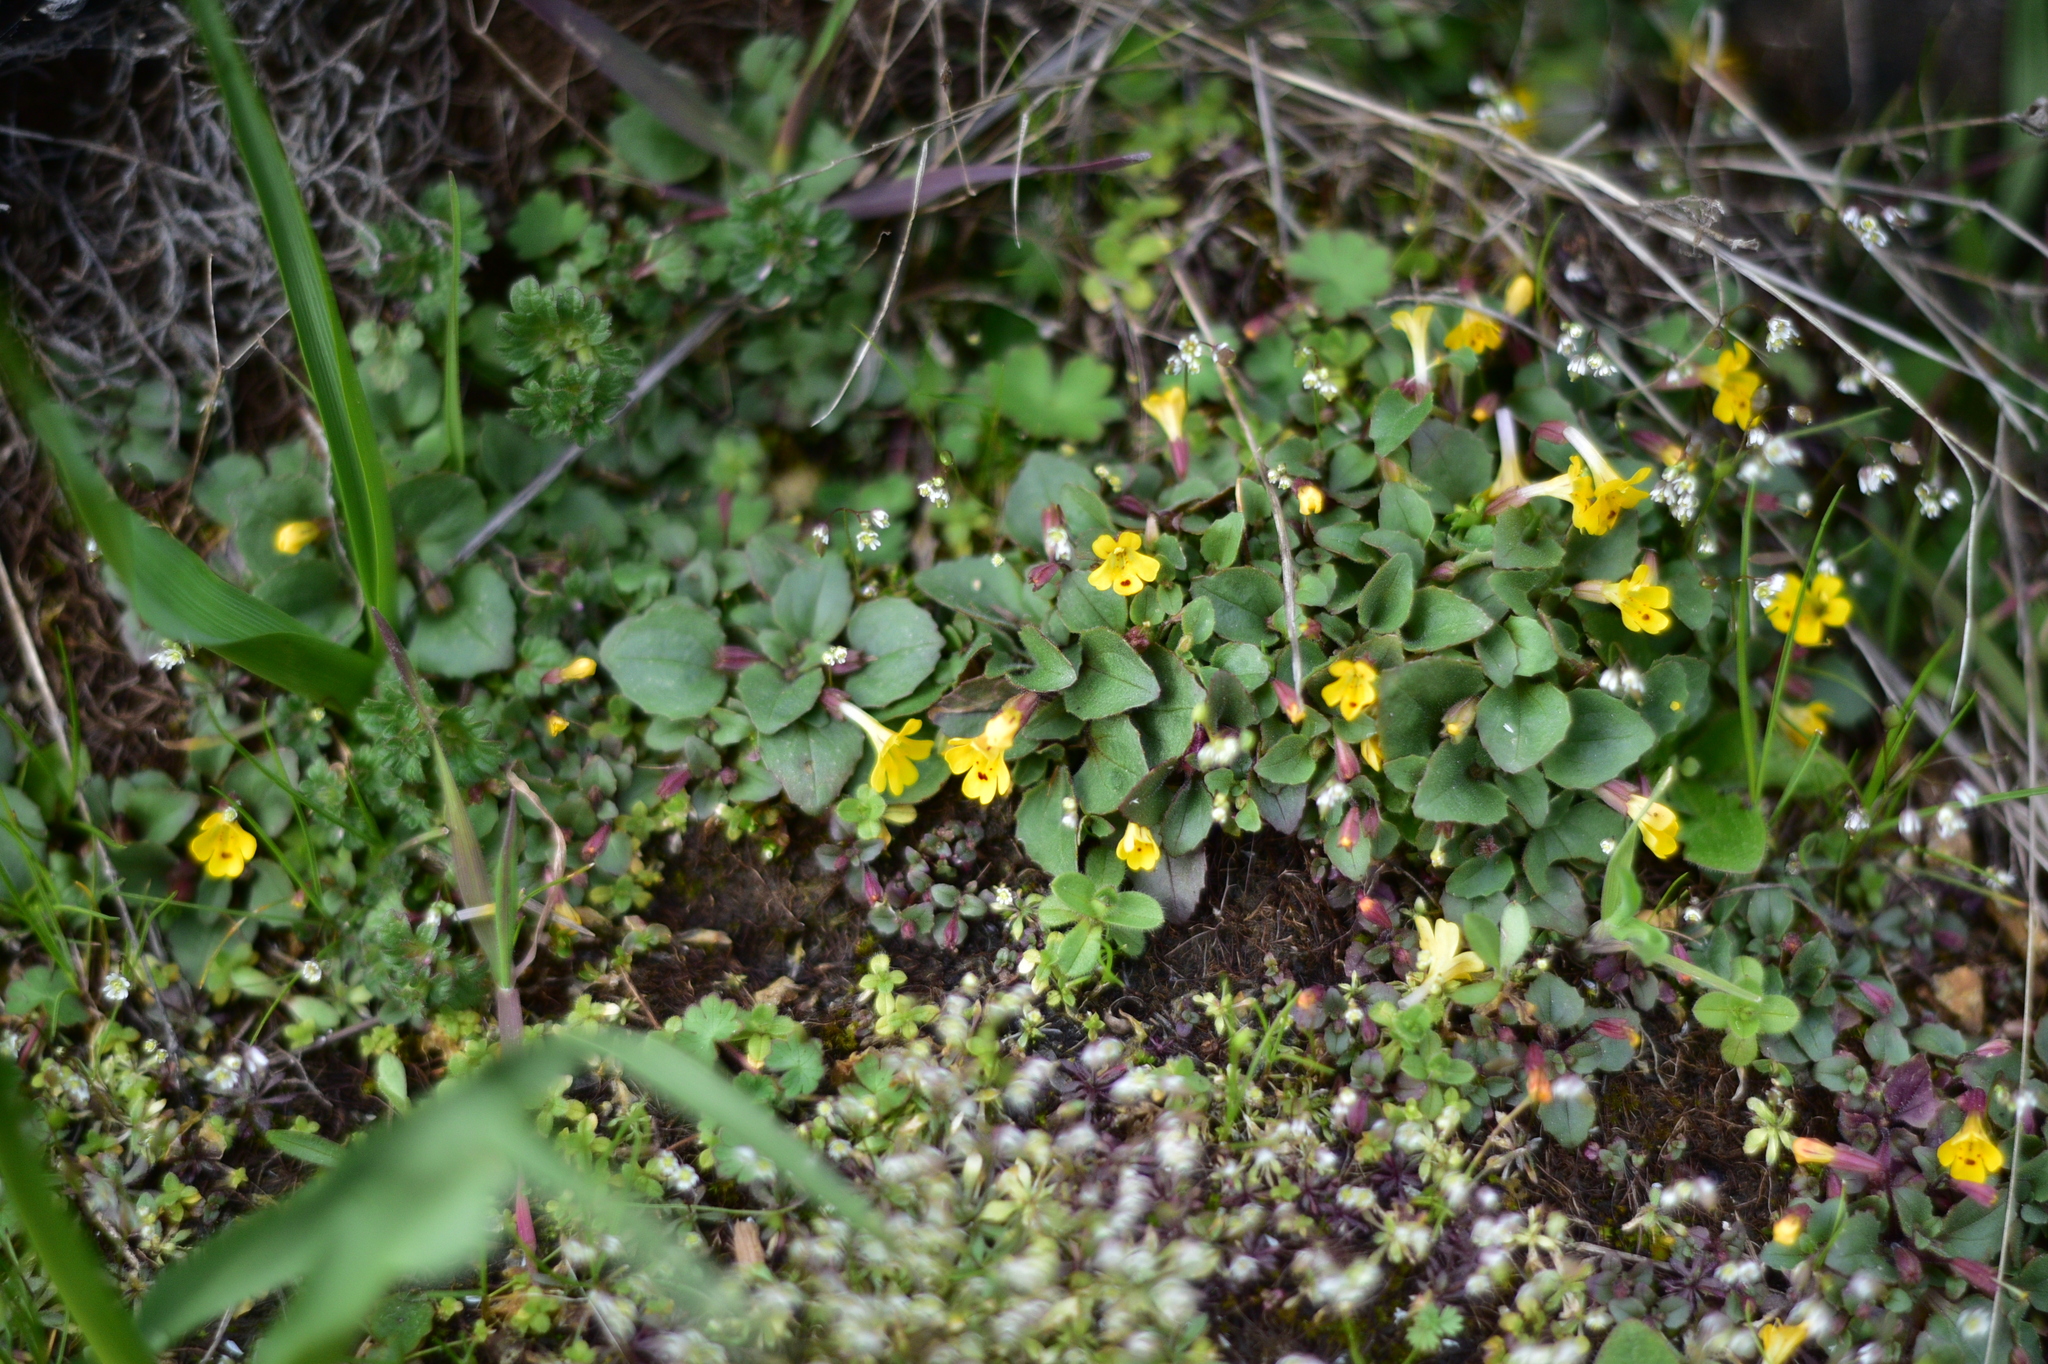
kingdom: Plantae
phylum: Tracheophyta
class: Magnoliopsida
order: Lamiales
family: Phrymaceae
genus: Erythranthe
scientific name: Erythranthe alsinoides
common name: Chickweed monkeyflower
